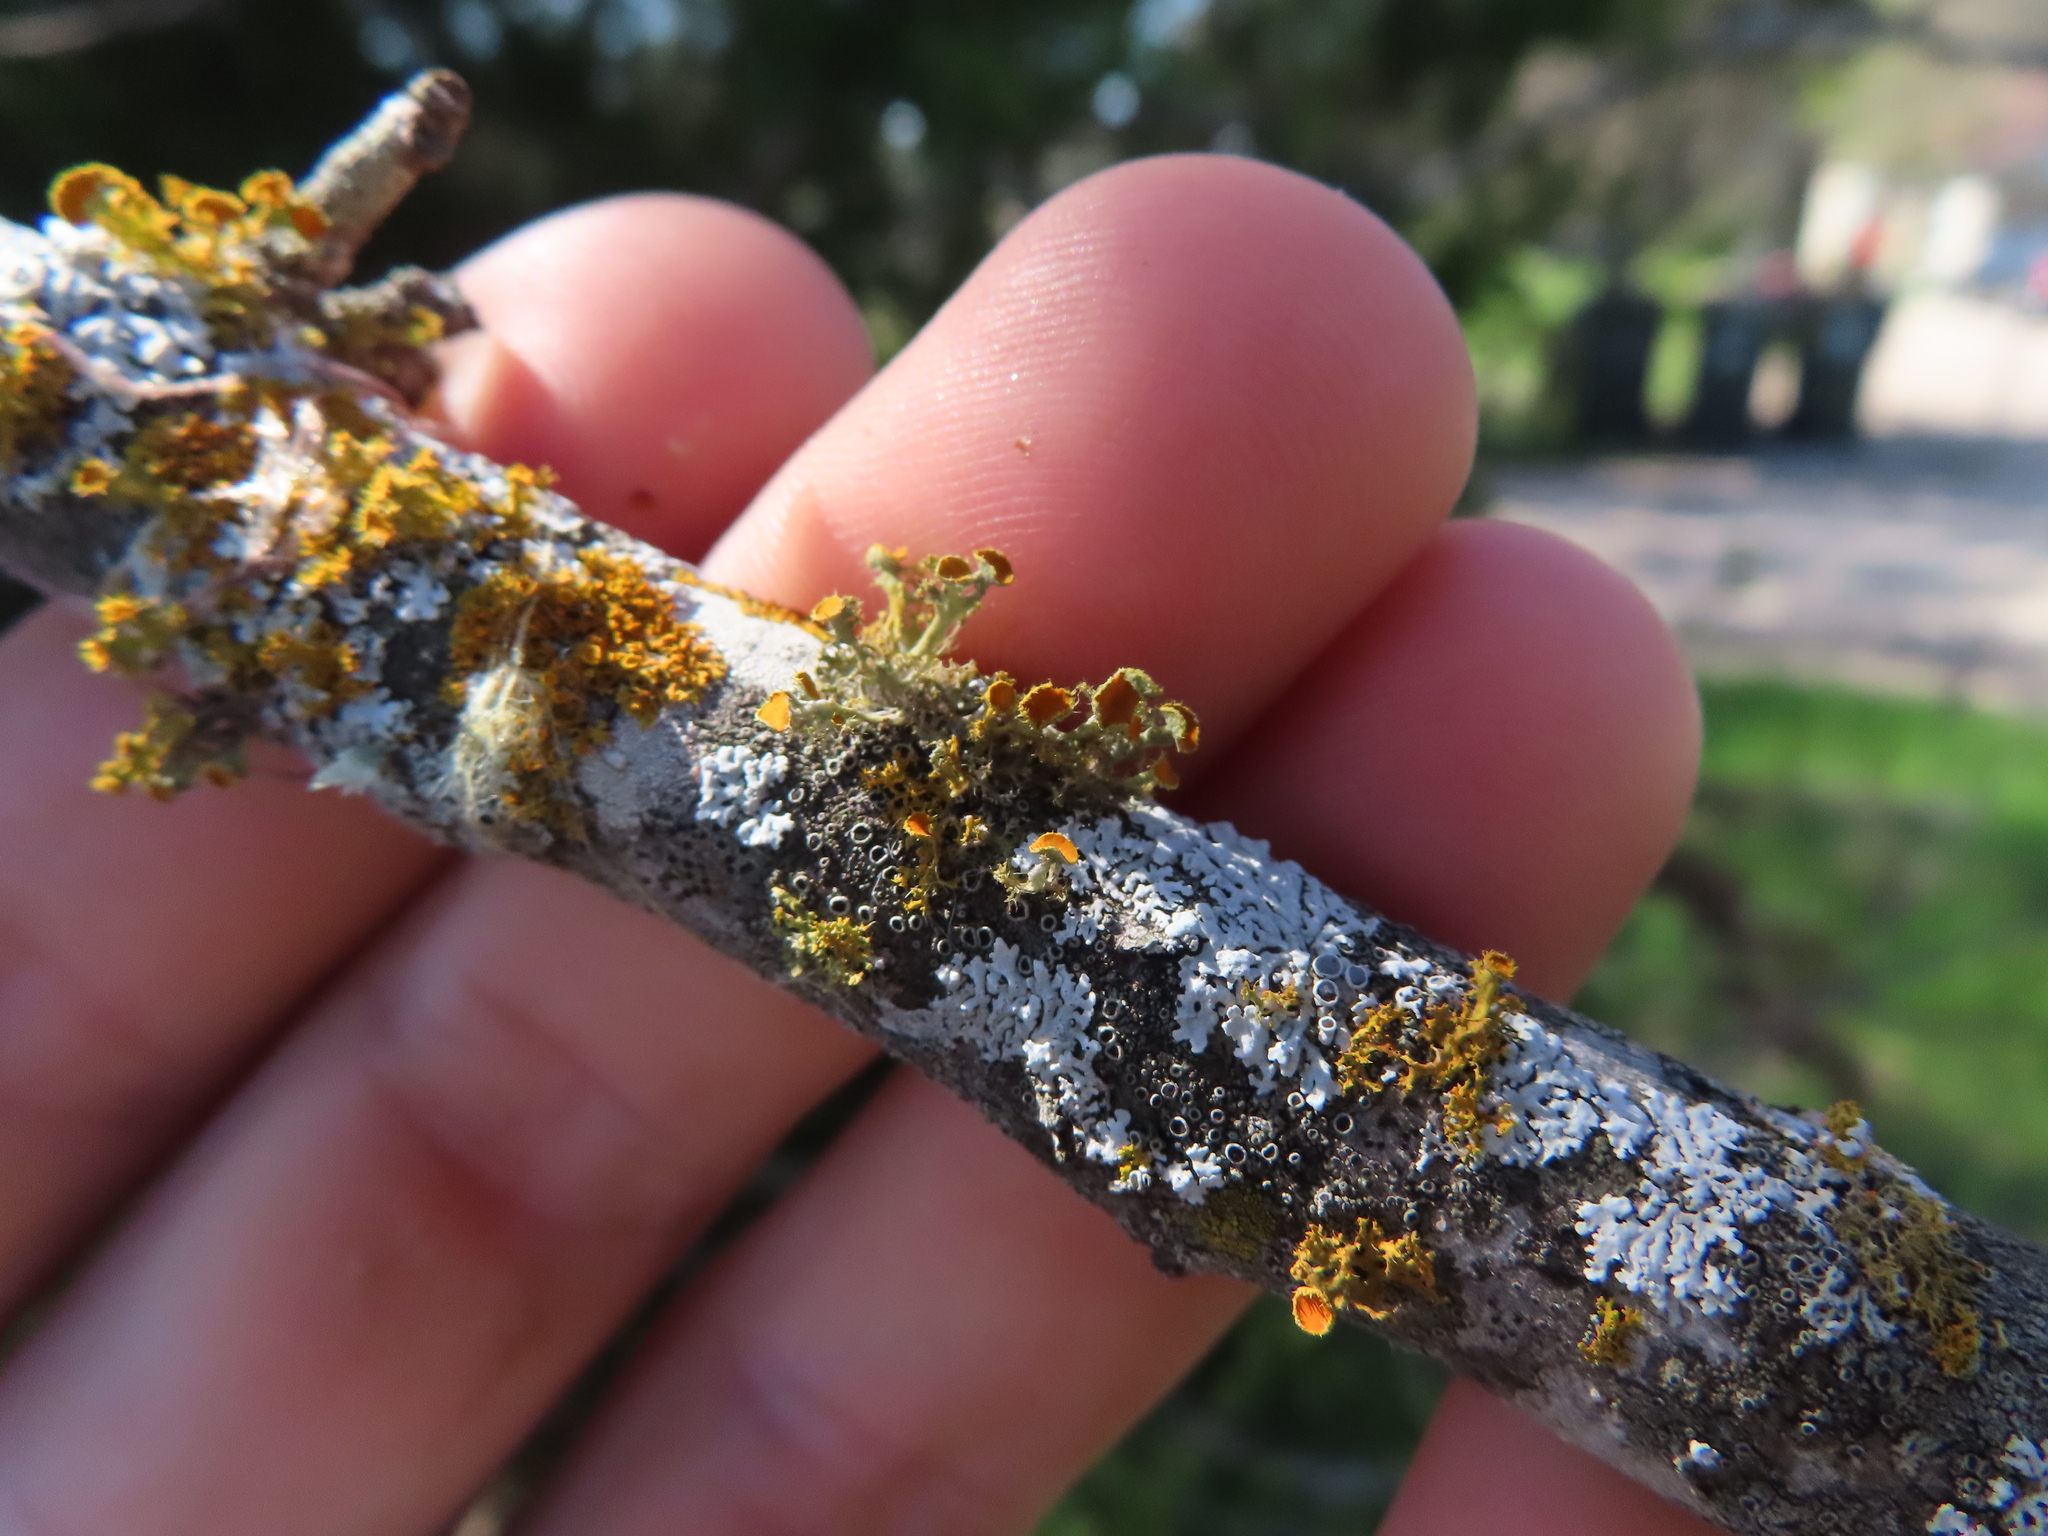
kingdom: Fungi
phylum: Ascomycota
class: Lecanoromycetes
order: Teloschistales
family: Teloschistaceae
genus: Niorma
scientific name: Niorma chrysophthalma
